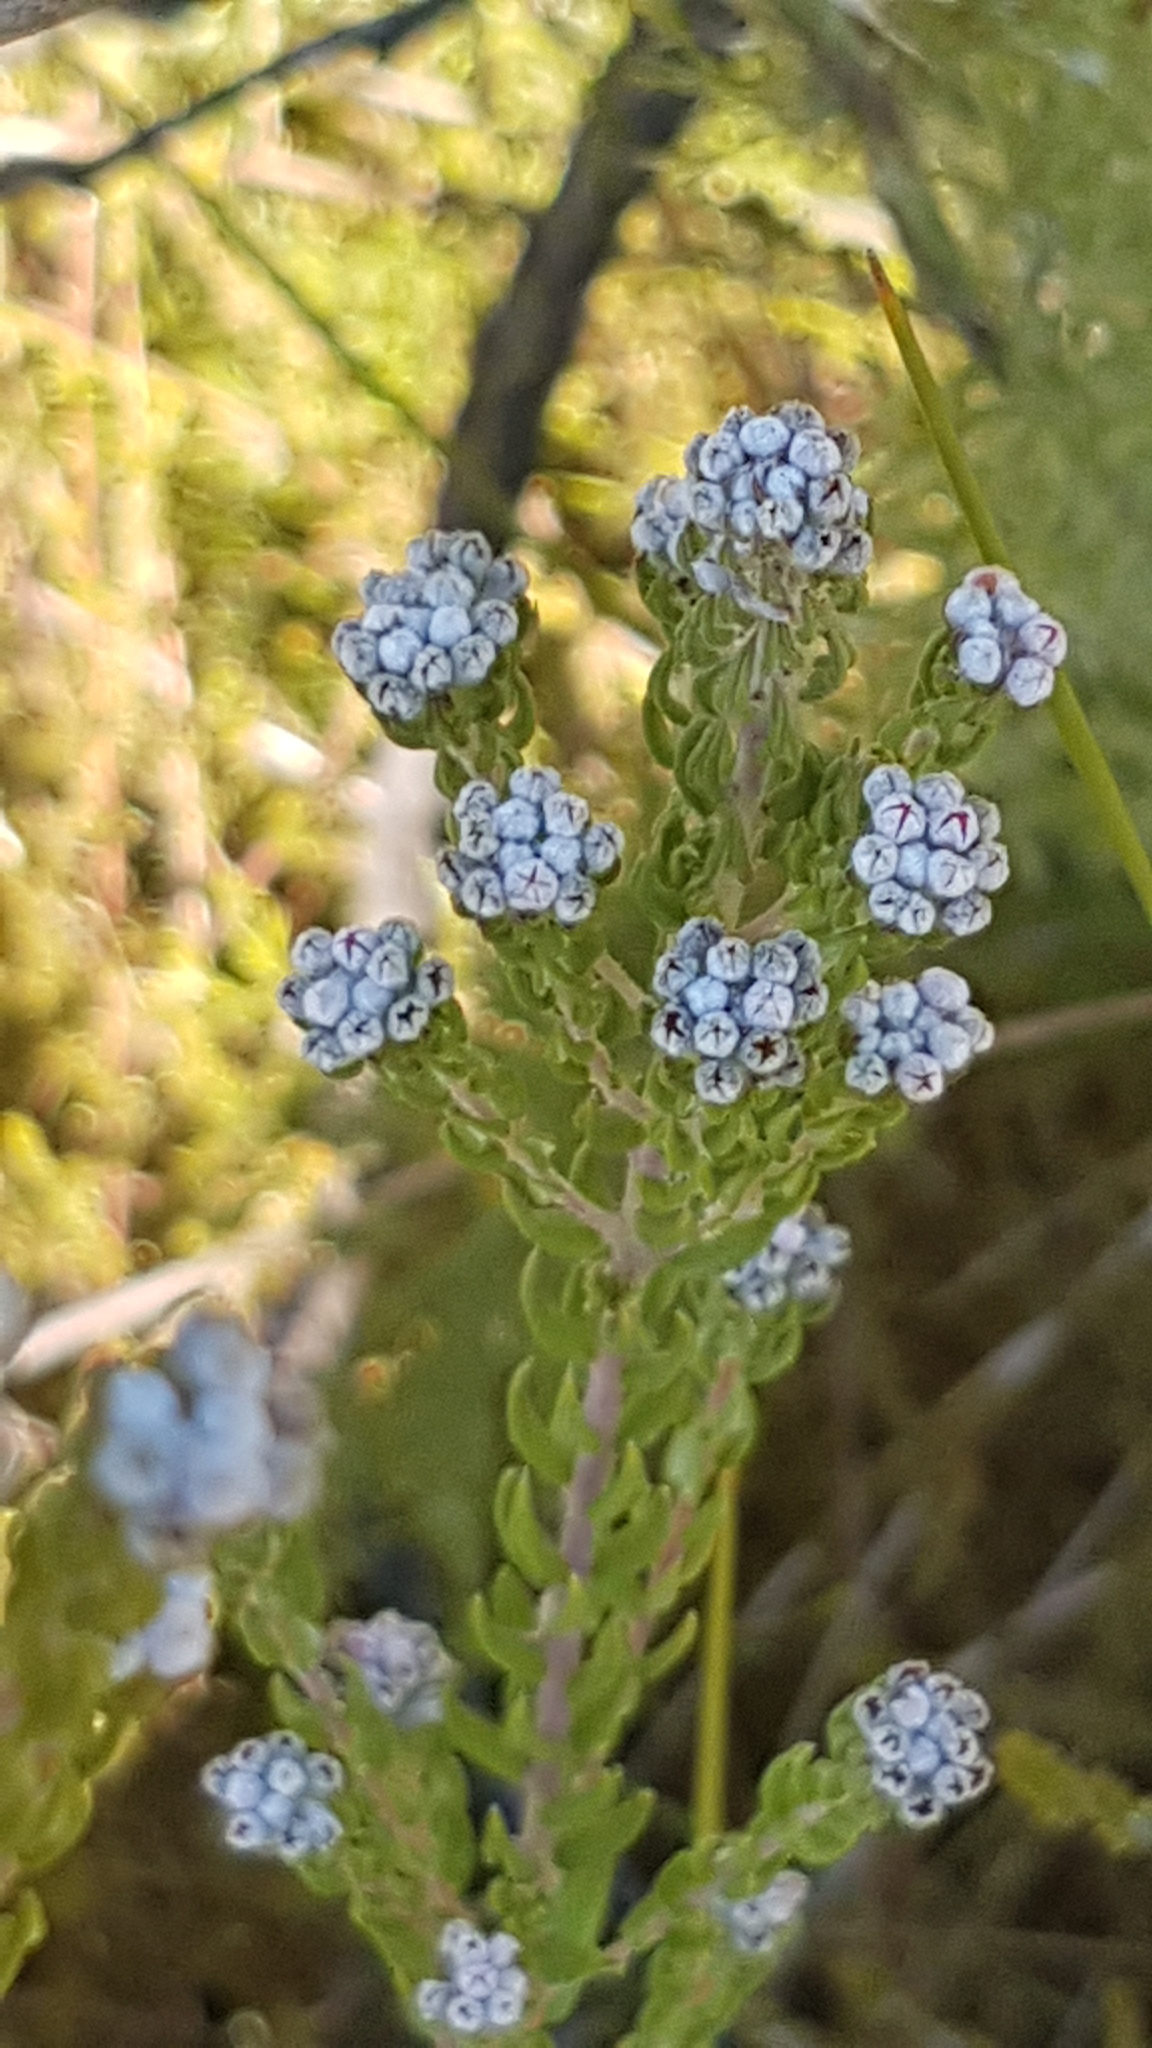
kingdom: Plantae
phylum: Tracheophyta
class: Magnoliopsida
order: Rosales
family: Rhamnaceae
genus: Phylica
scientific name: Phylica purpurea
